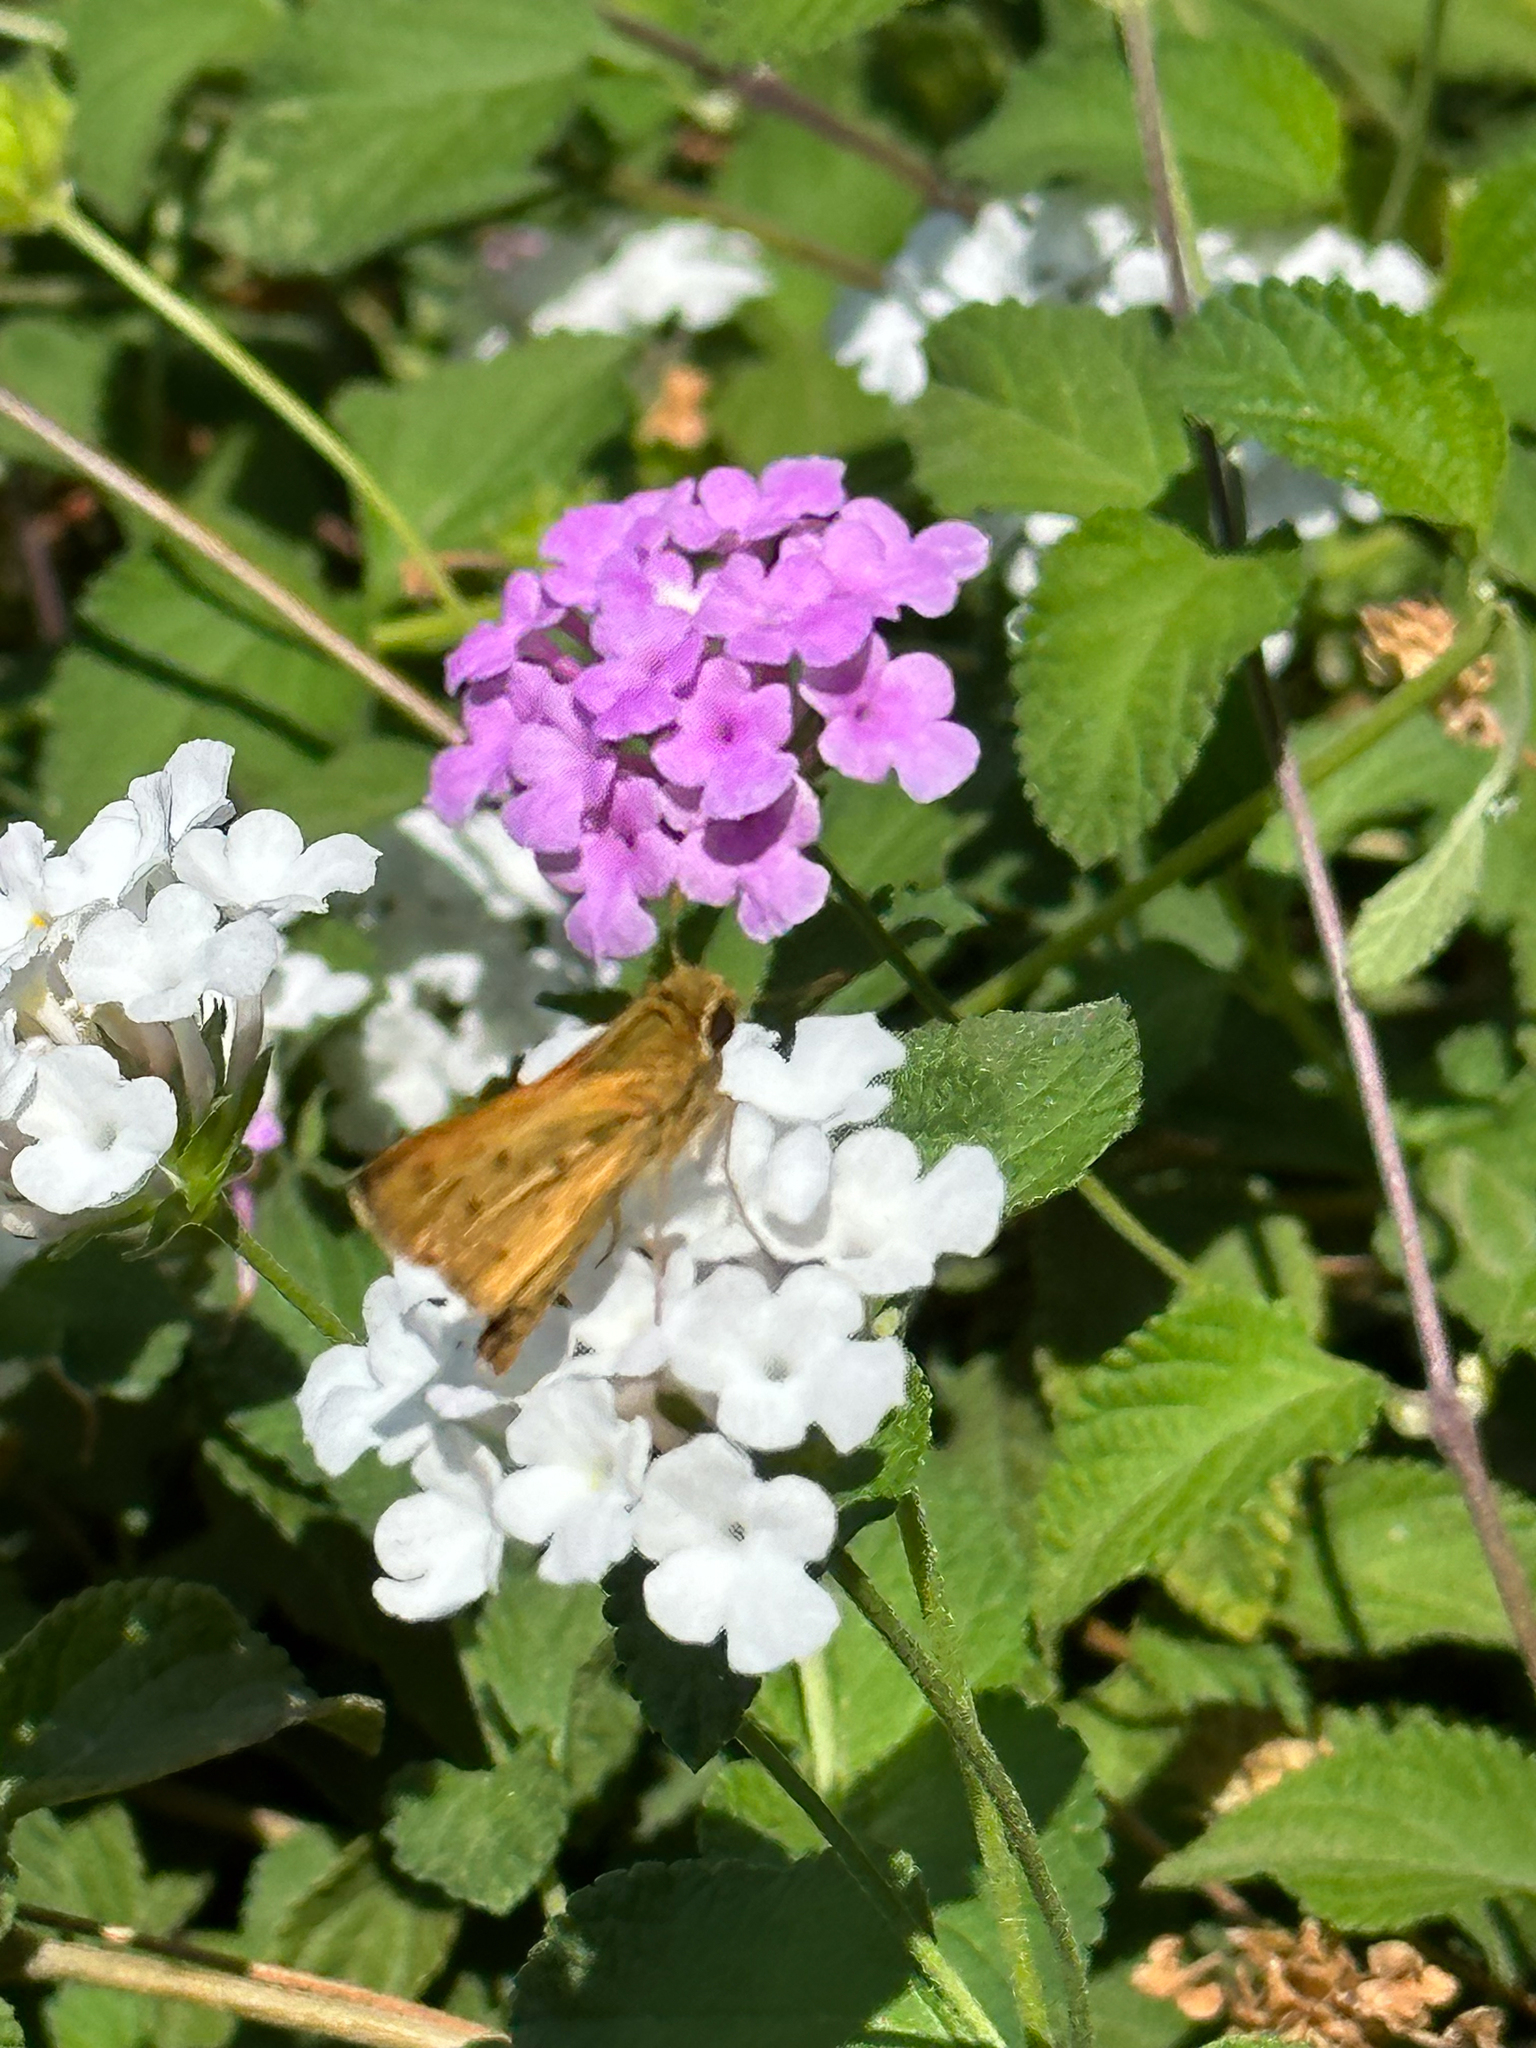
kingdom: Animalia
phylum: Arthropoda
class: Insecta
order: Lepidoptera
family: Hesperiidae
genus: Hylephila
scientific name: Hylephila phyleus
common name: Fiery skipper
